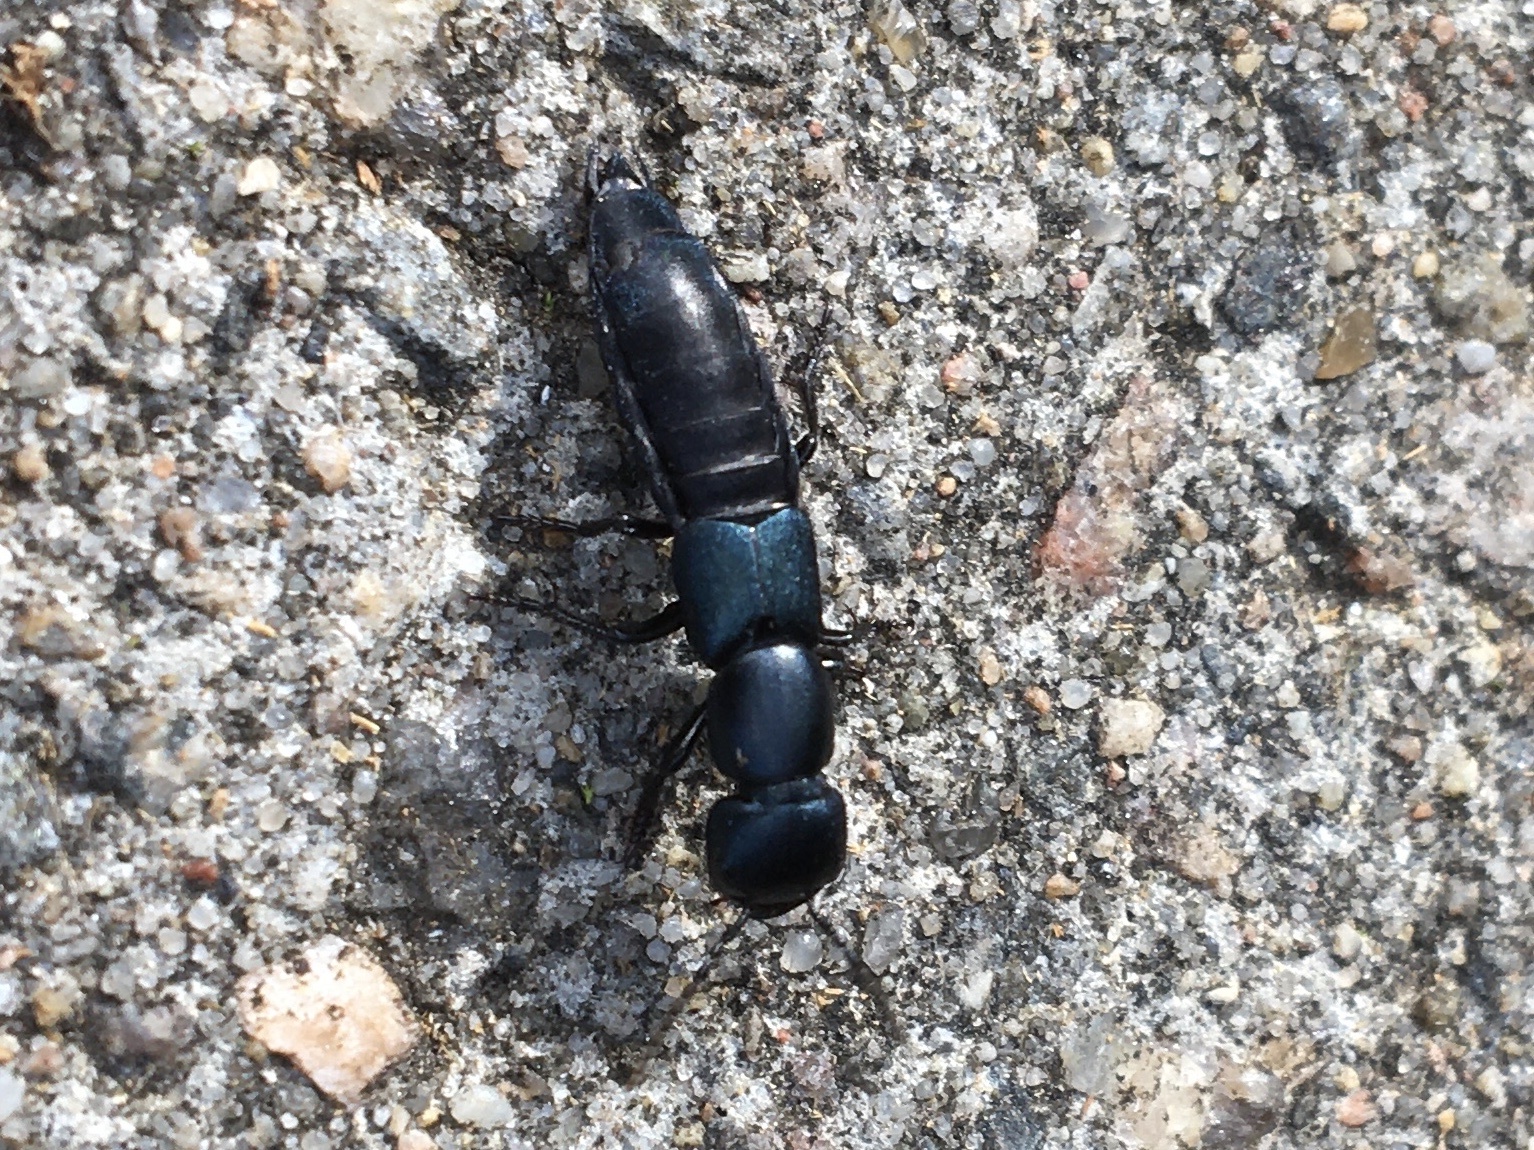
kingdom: Animalia
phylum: Arthropoda
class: Insecta
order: Coleoptera
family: Staphylinidae
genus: Ocypus
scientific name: Ocypus ophthalmicus
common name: Blue rove-beetle
